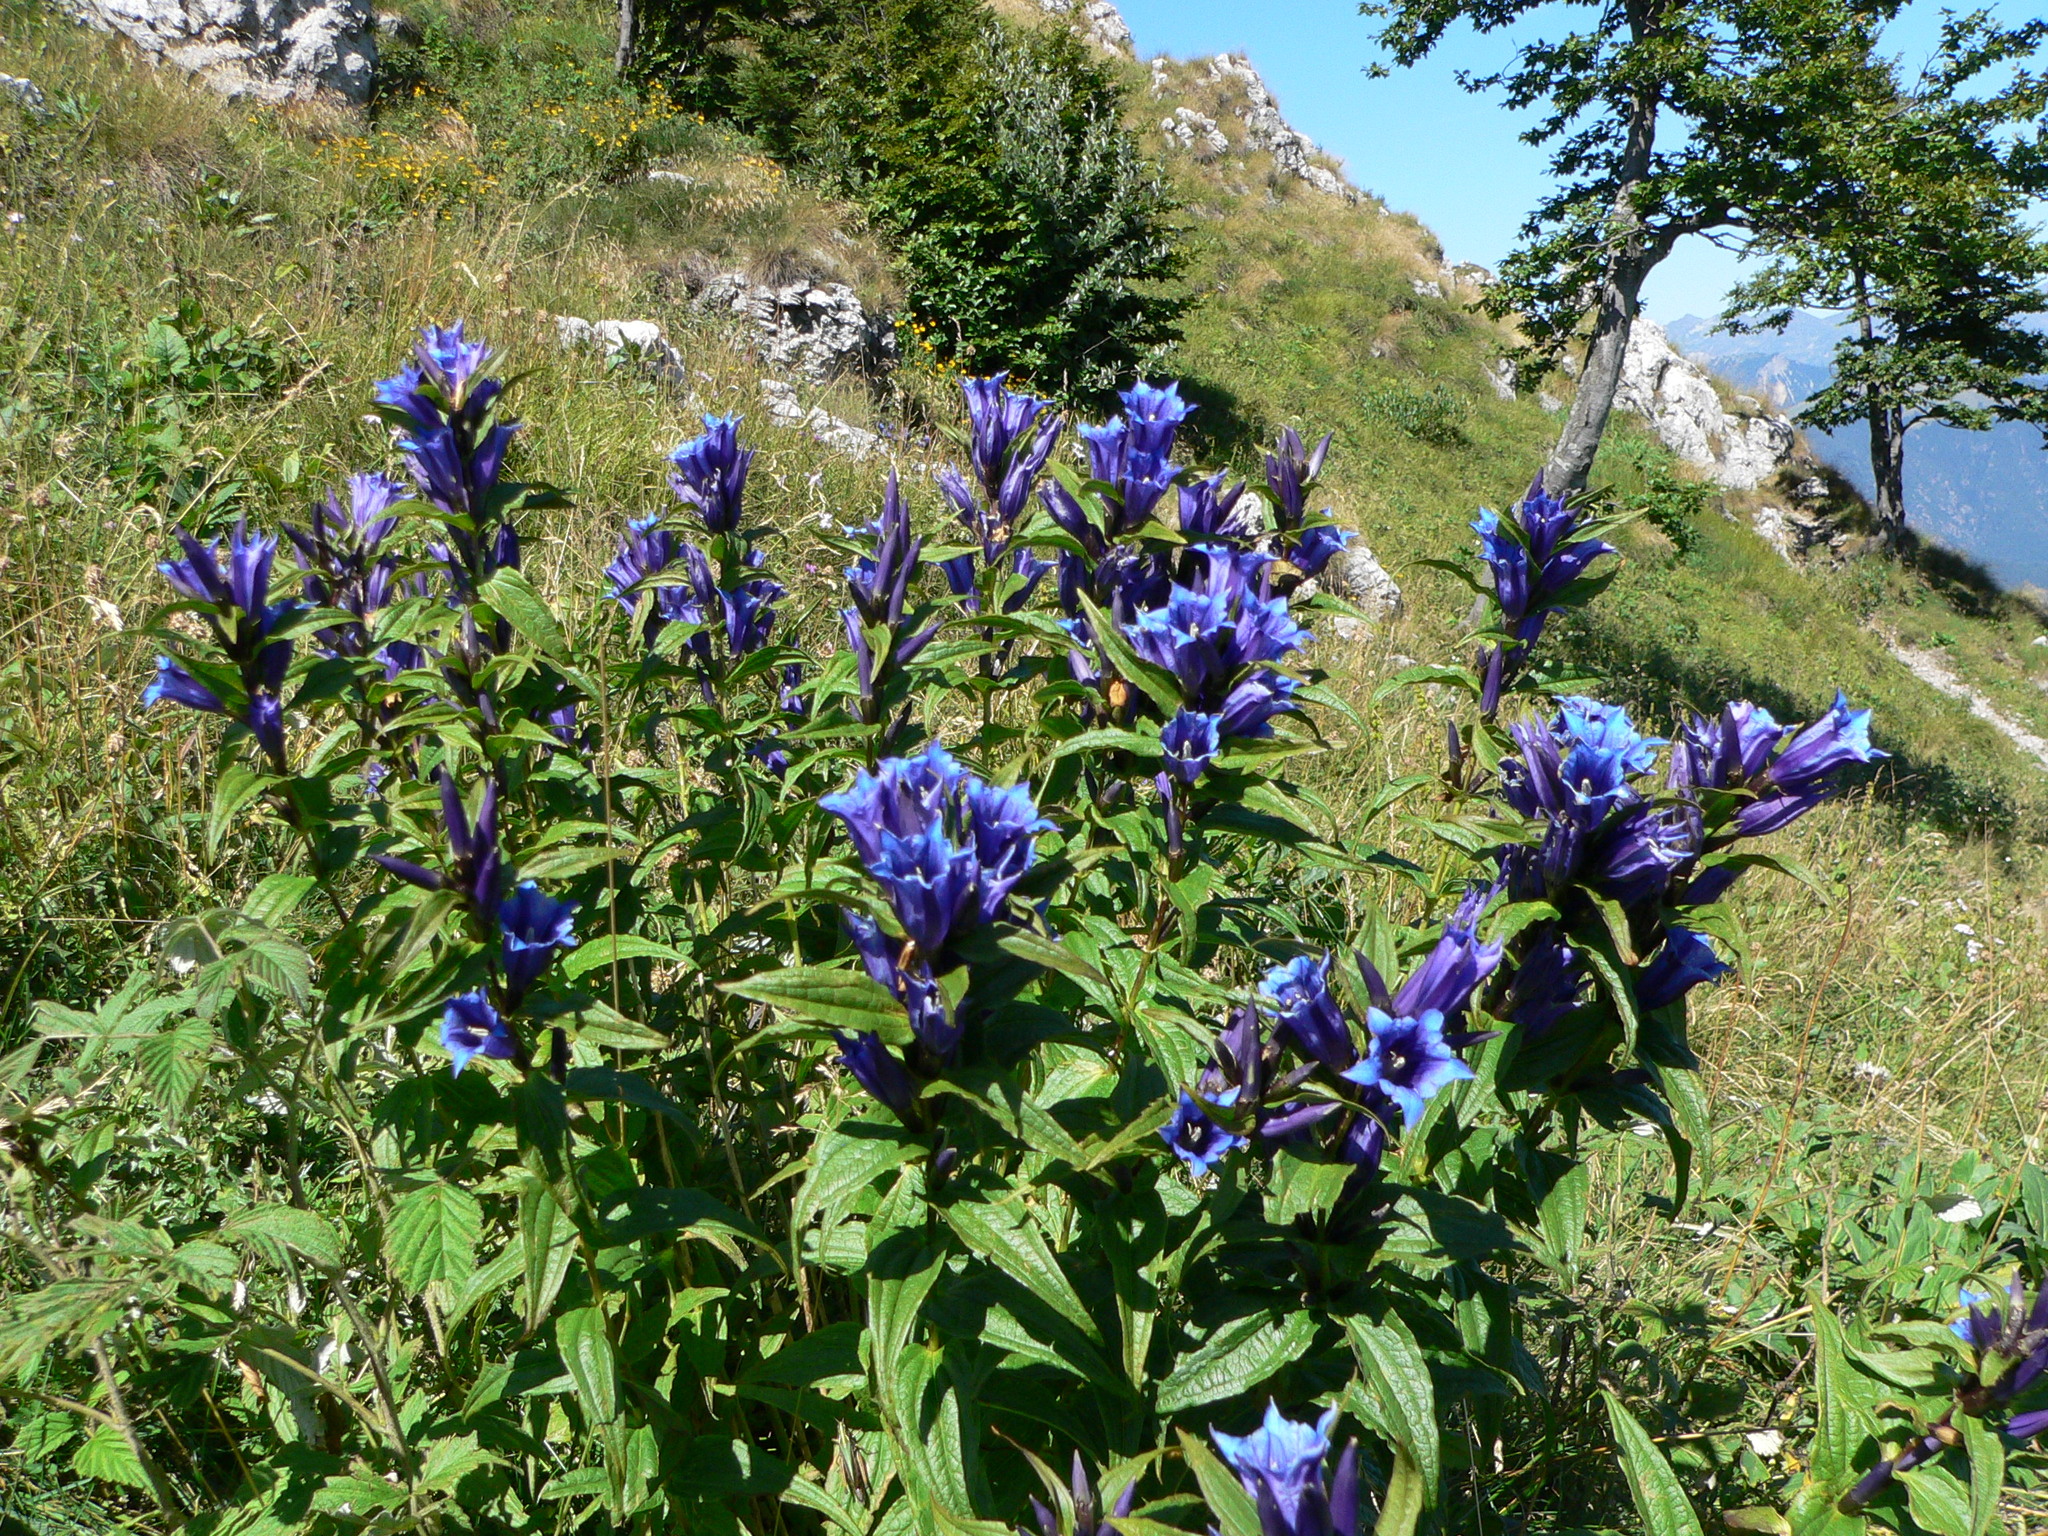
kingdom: Plantae
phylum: Tracheophyta
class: Magnoliopsida
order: Gentianales
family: Gentianaceae
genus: Gentiana
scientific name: Gentiana asclepiadea
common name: Willow gentian
